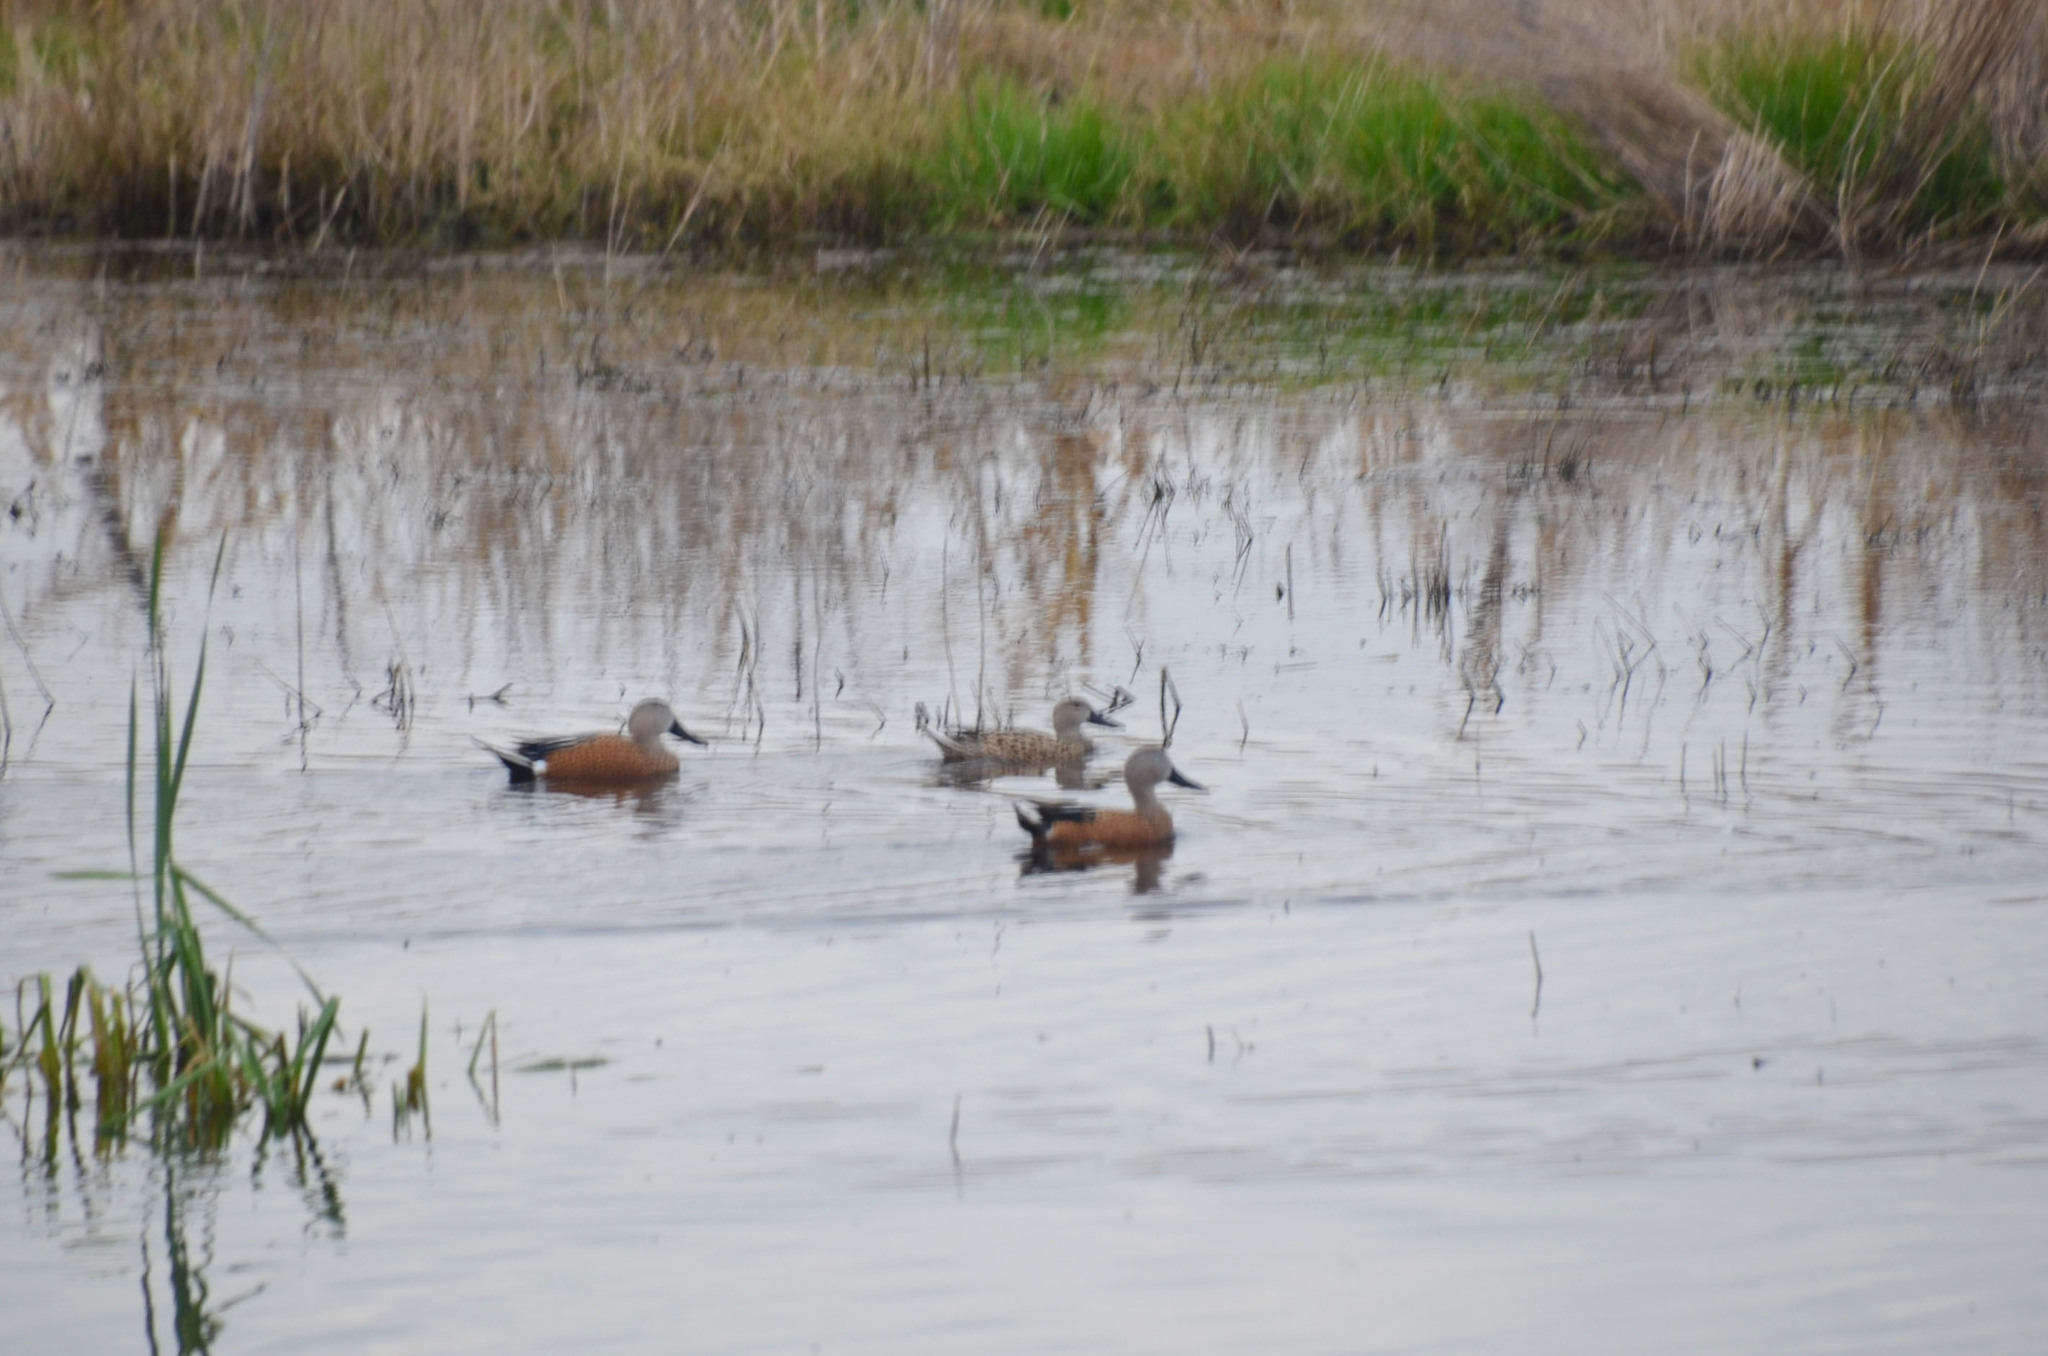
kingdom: Animalia
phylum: Chordata
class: Aves
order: Anseriformes
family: Anatidae
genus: Spatula
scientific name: Spatula platalea
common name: Red shoveler
